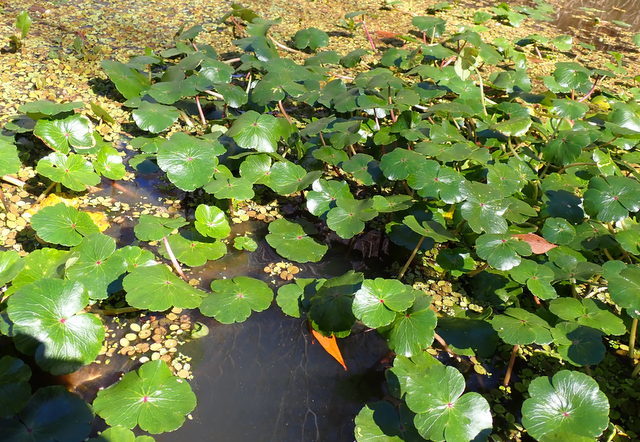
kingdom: Plantae
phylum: Tracheophyta
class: Magnoliopsida
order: Apiales
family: Araliaceae
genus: Hydrocotyle
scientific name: Hydrocotyle ranunculoides
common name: Floating pennywort
